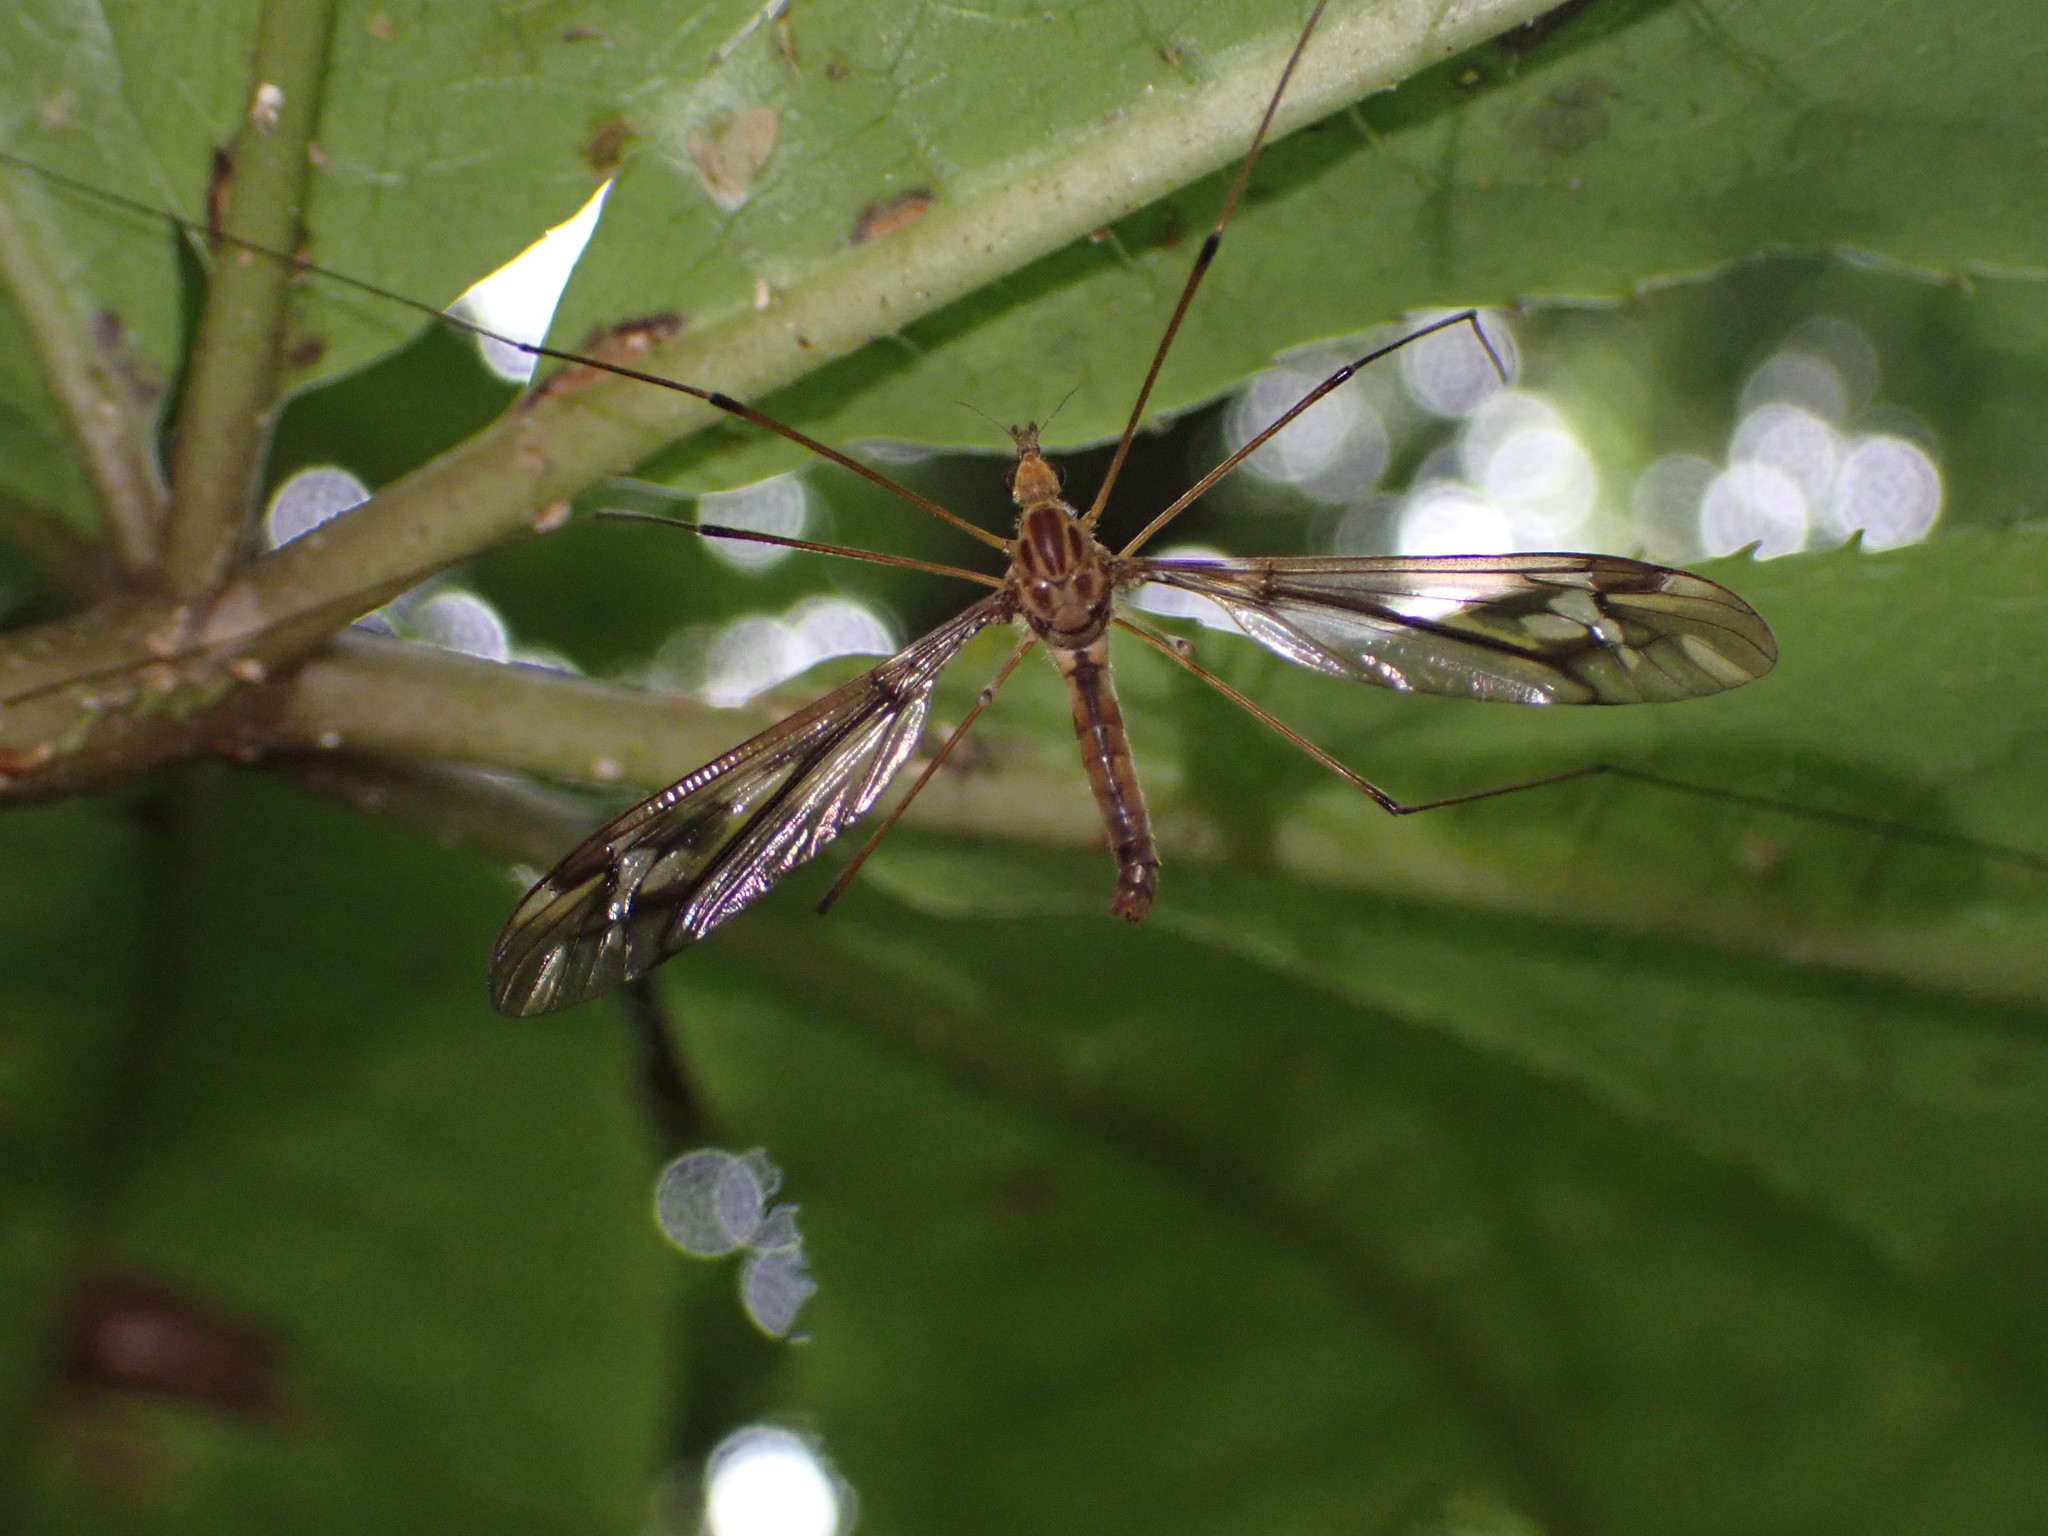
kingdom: Animalia
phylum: Arthropoda
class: Insecta
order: Diptera
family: Tipulidae
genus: Leptotarsus
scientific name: Leptotarsus huttoni
